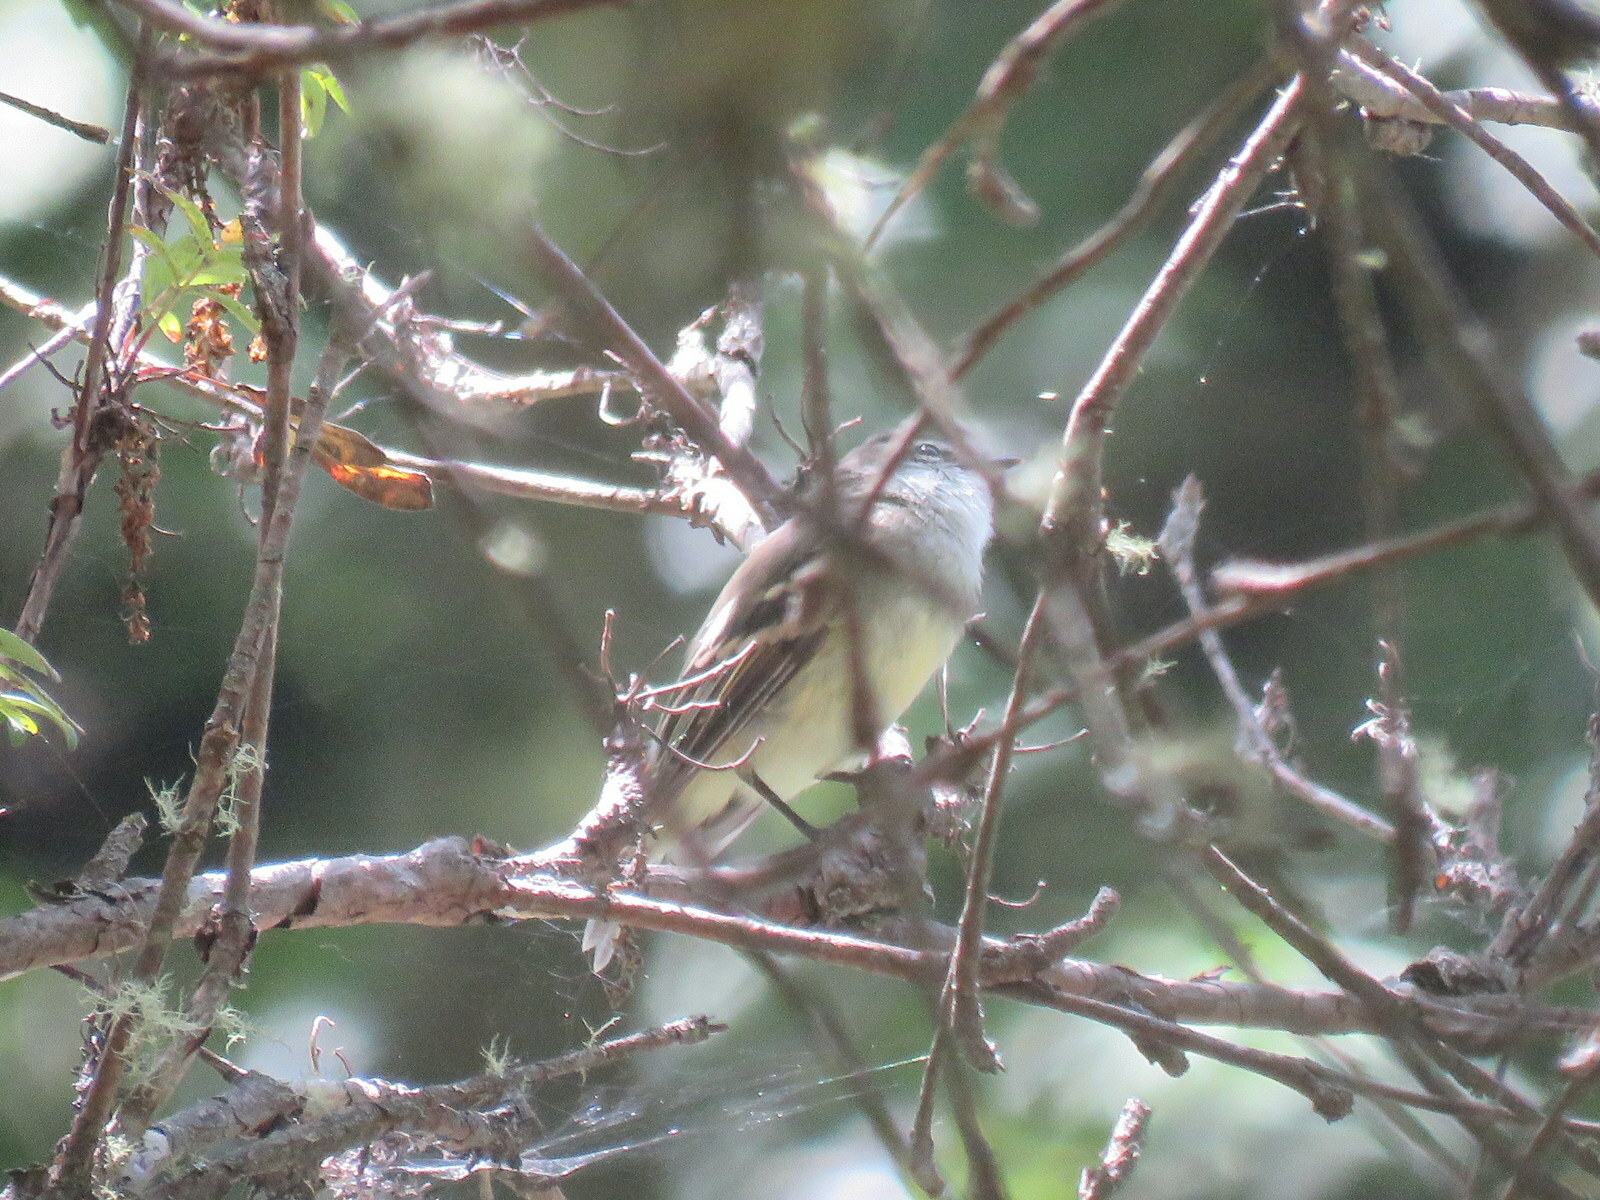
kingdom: Animalia
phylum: Chordata
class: Aves
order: Passeriformes
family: Tyrannidae
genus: Mecocerculus
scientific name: Mecocerculus leucophrys
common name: White-throated tyrannulet
